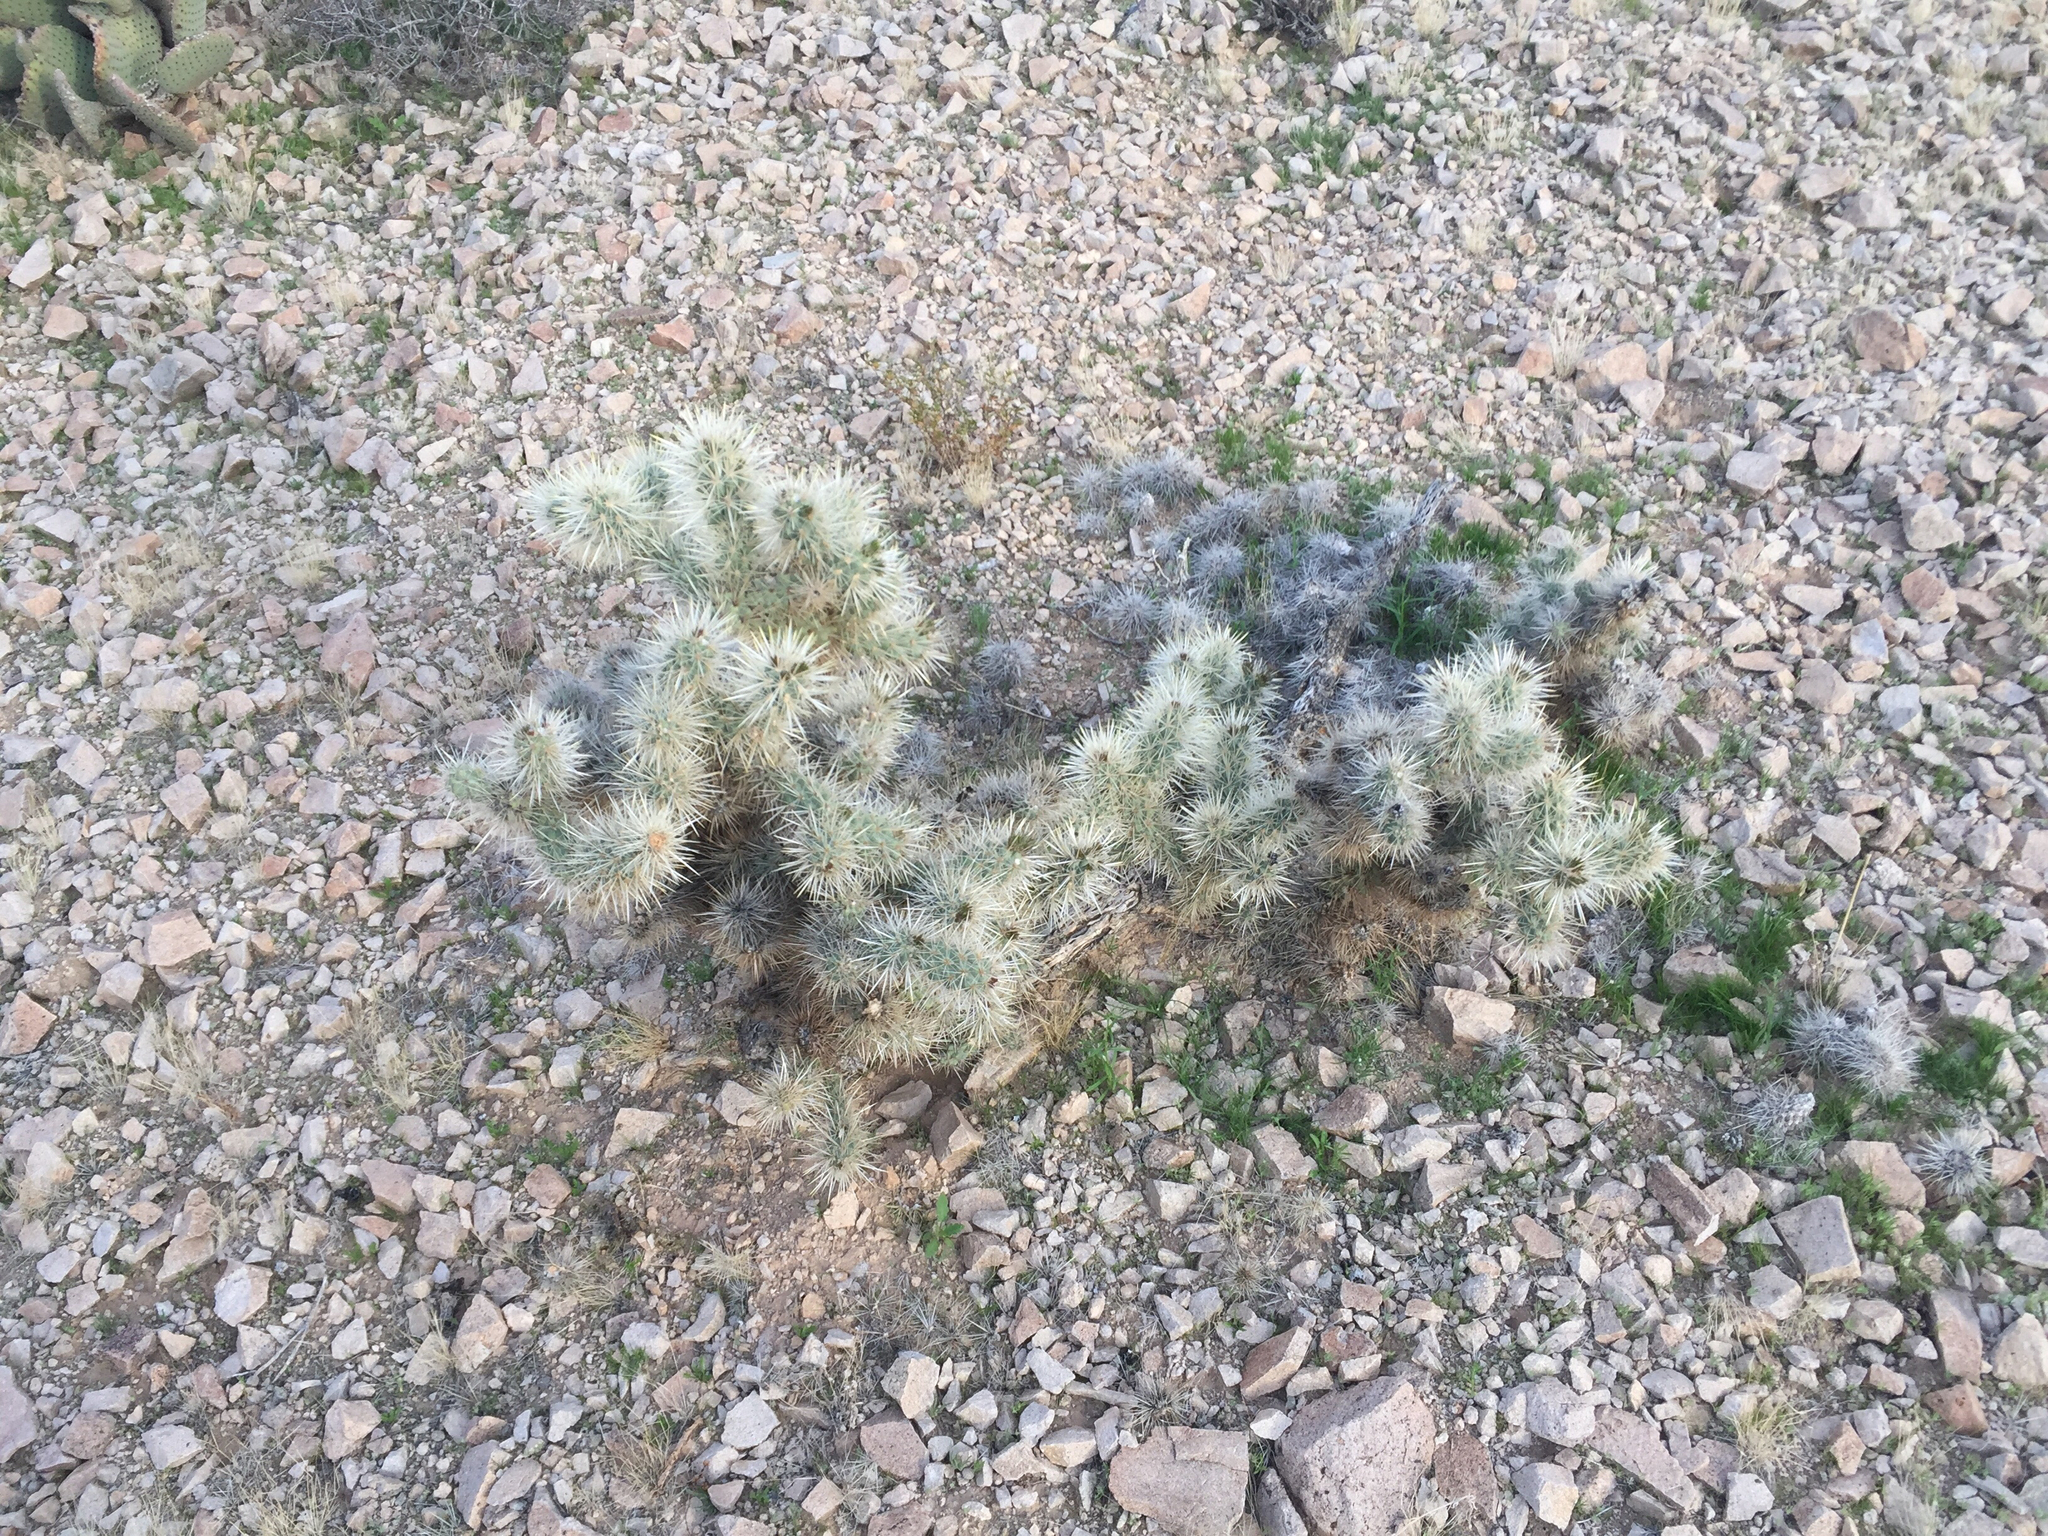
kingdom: Plantae
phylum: Tracheophyta
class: Magnoliopsida
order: Caryophyllales
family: Cactaceae
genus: Cylindropuntia
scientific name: Cylindropuntia echinocarpa
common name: Ground cholla
